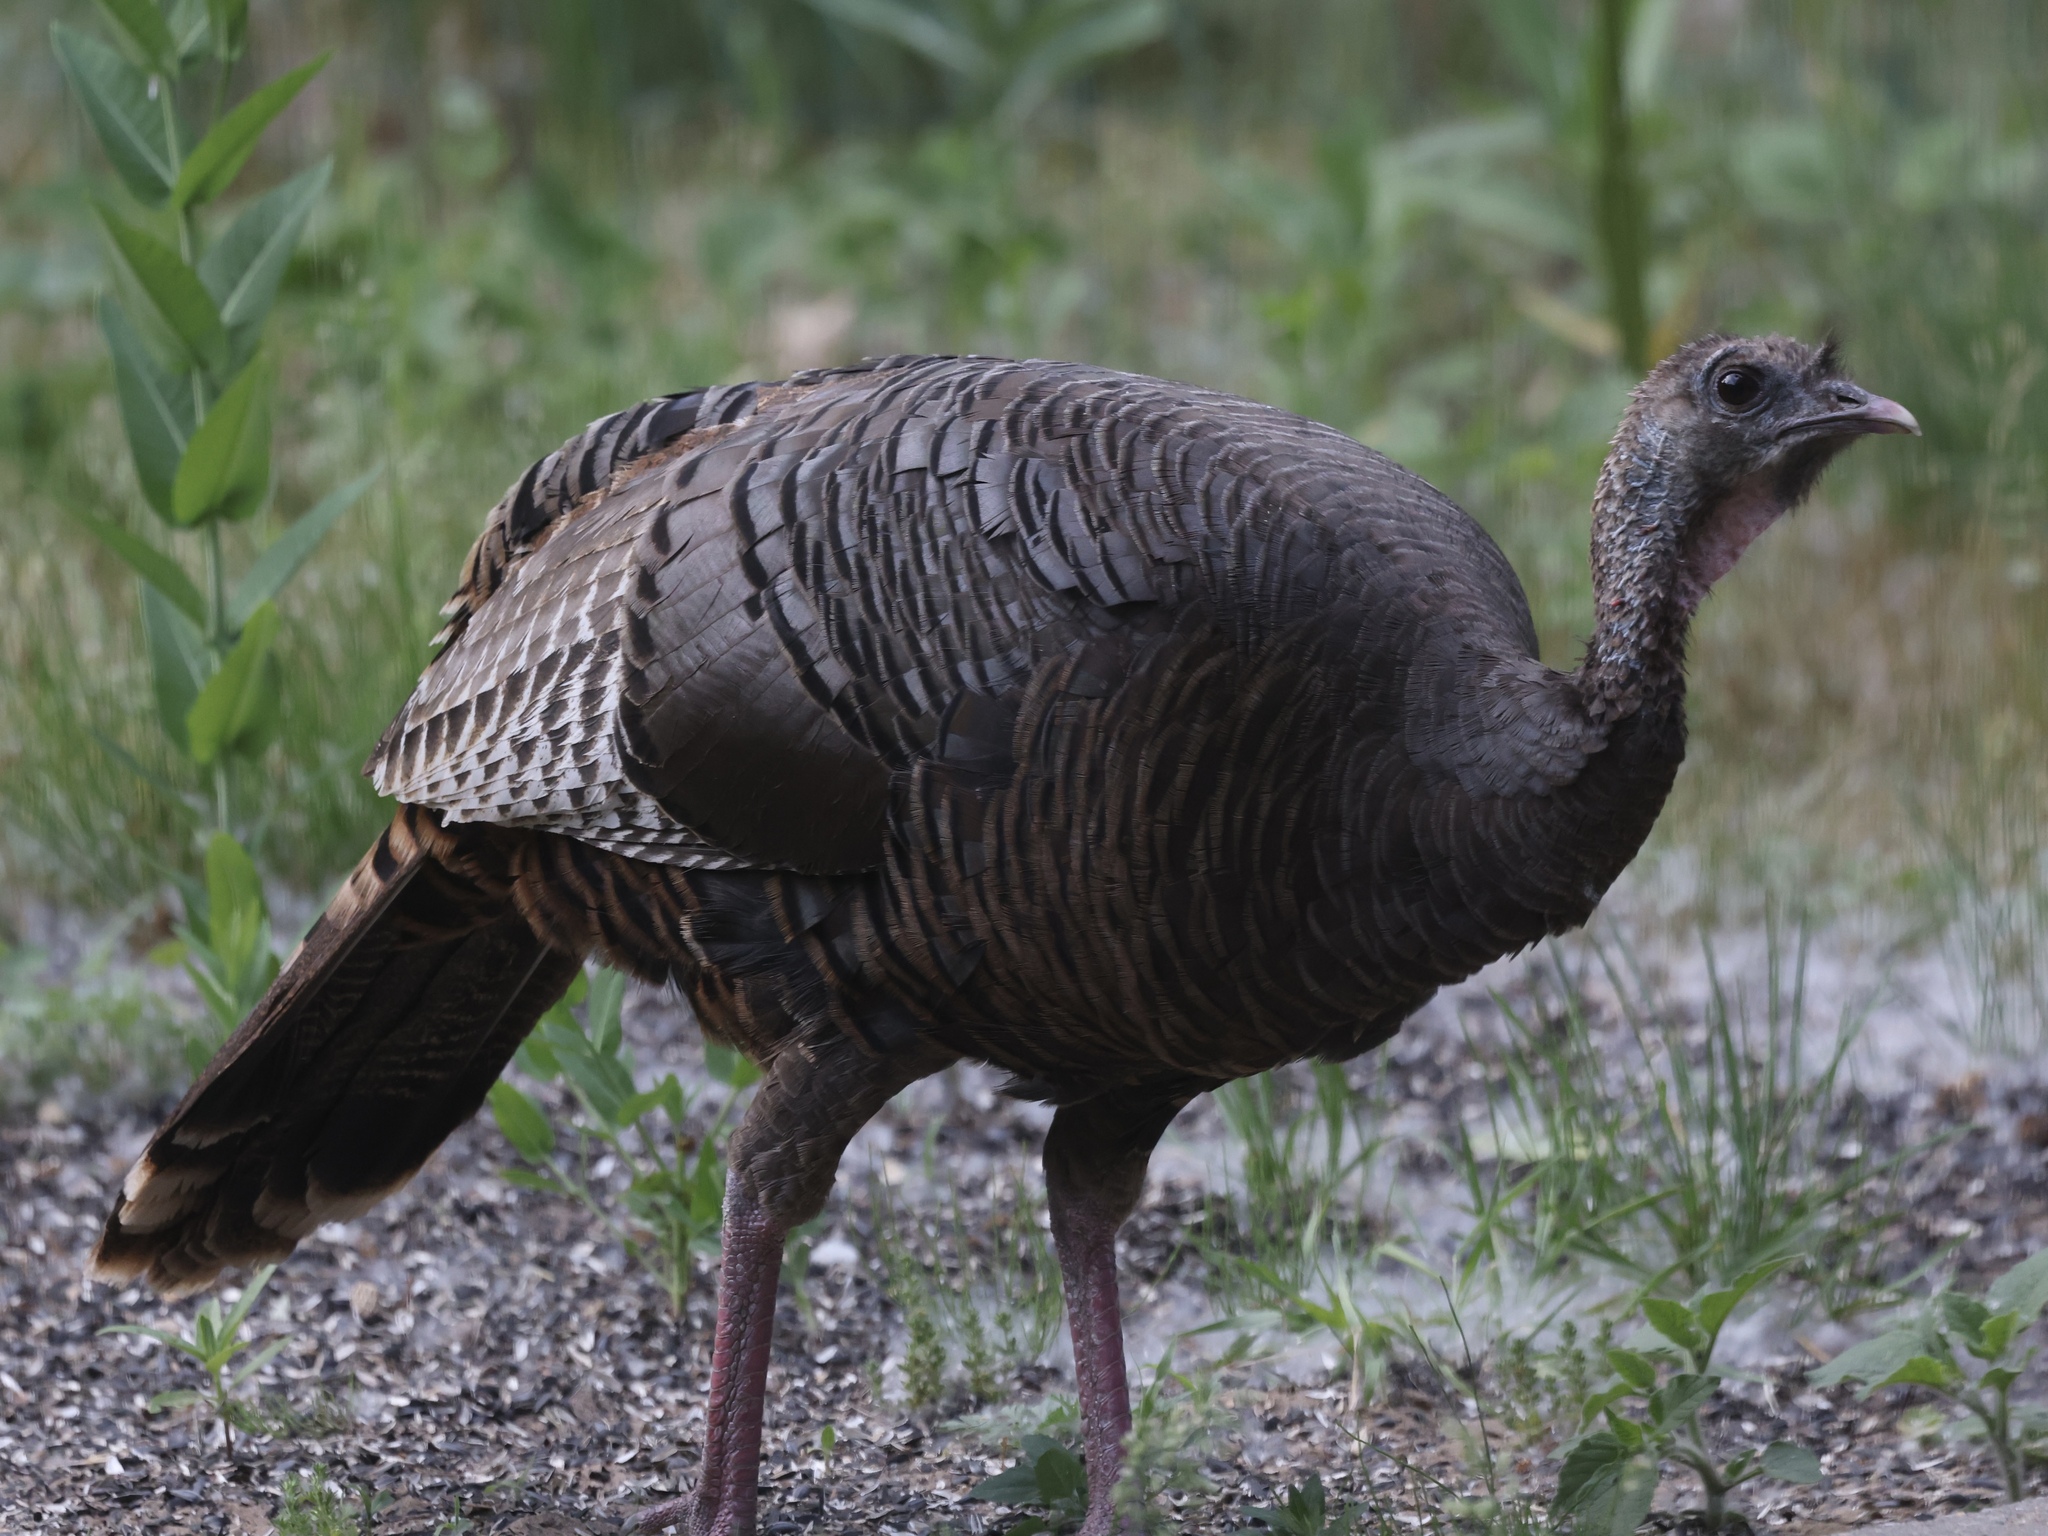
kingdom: Animalia
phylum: Chordata
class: Aves
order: Galliformes
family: Phasianidae
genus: Meleagris
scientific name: Meleagris gallopavo
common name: Wild turkey
